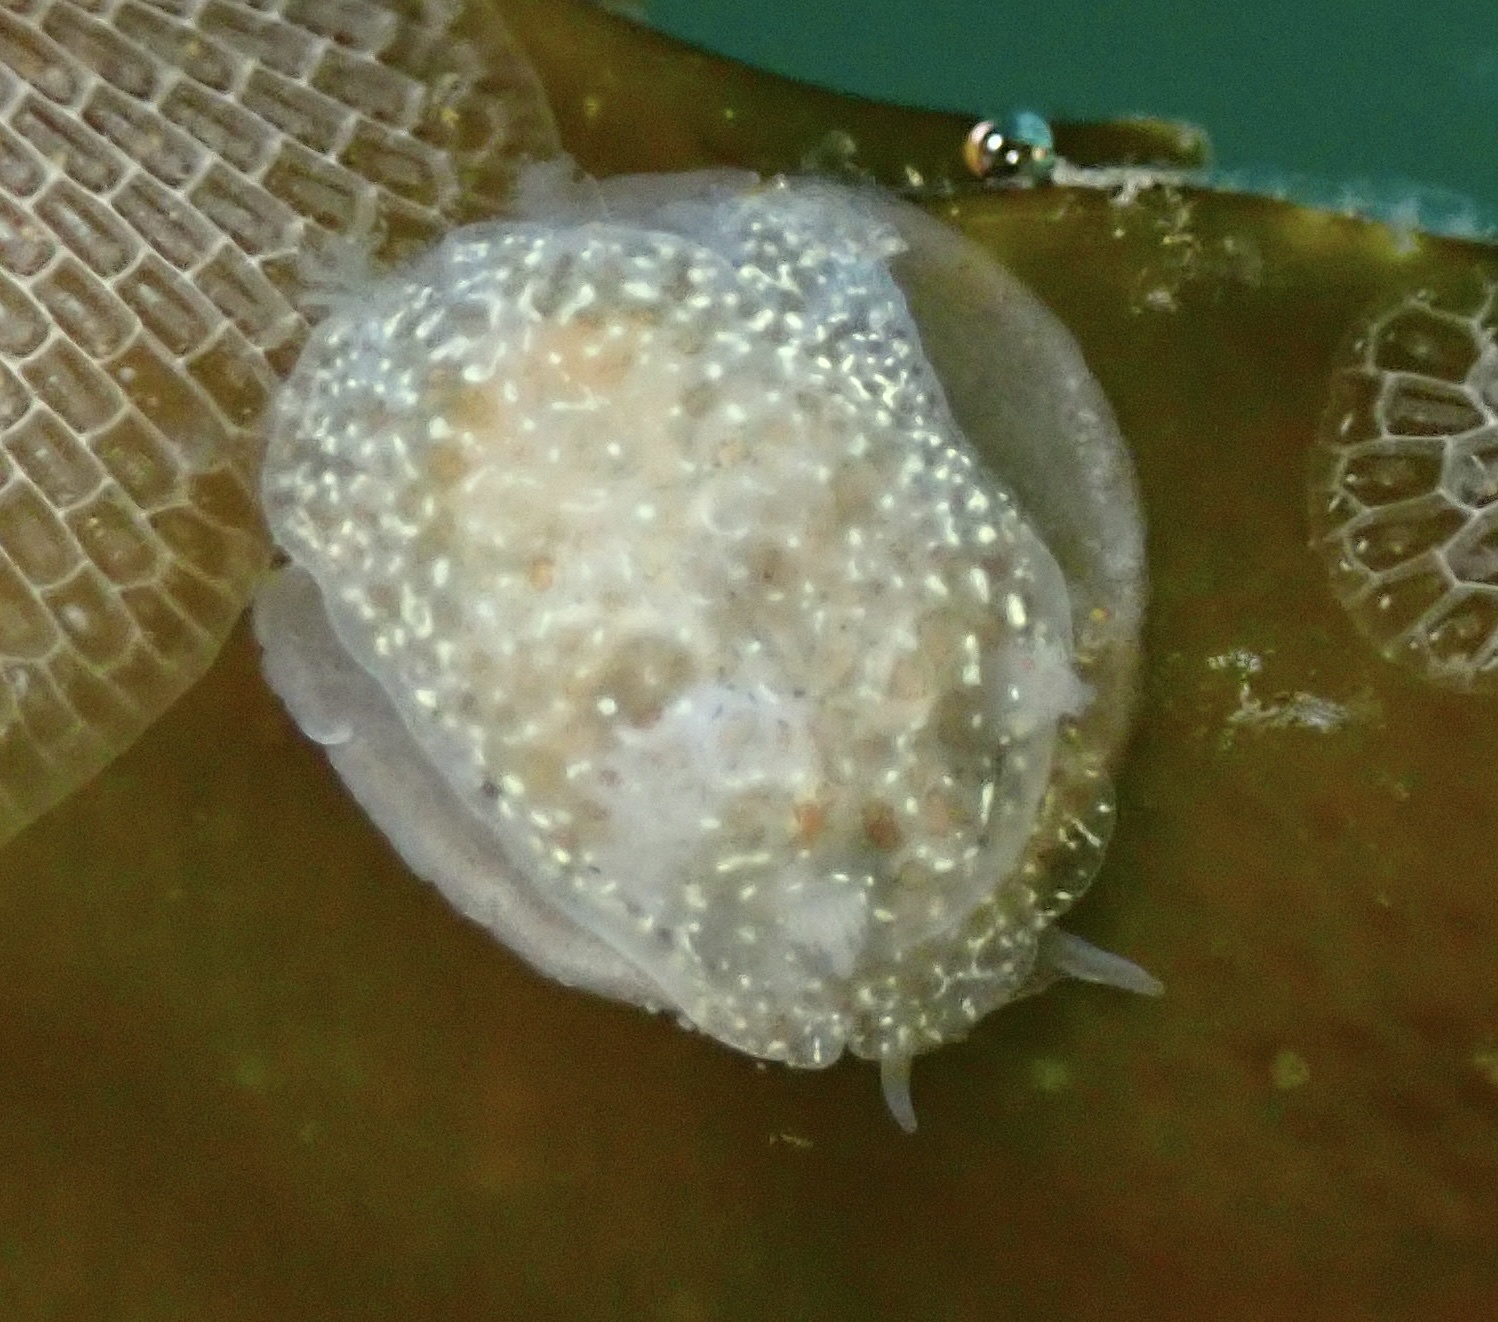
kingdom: Animalia
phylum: Mollusca
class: Gastropoda
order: Nudibranchia
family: Corambidae
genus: Corambe
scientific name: Corambe pacifica
